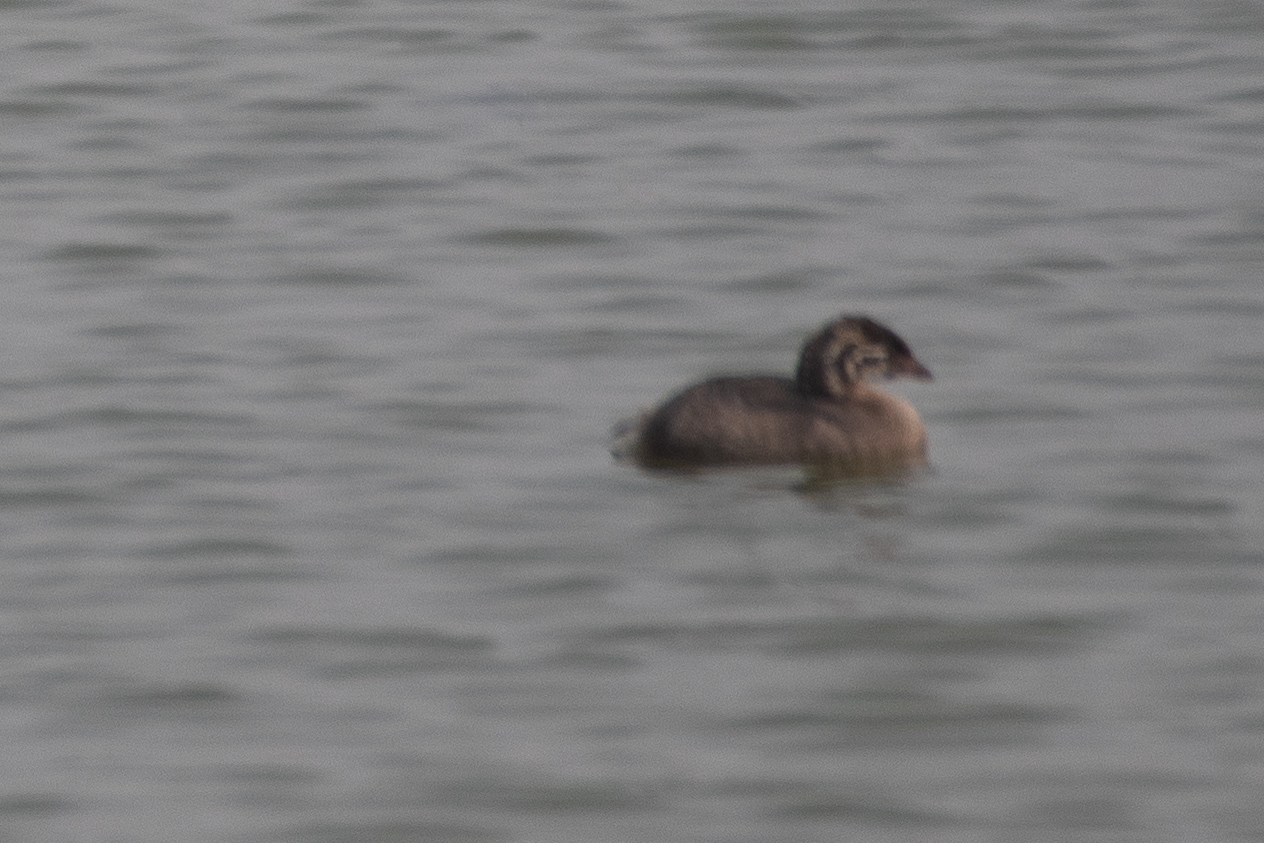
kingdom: Animalia
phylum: Chordata
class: Aves
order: Podicipediformes
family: Podicipedidae
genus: Podilymbus
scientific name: Podilymbus podiceps
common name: Pied-billed grebe
